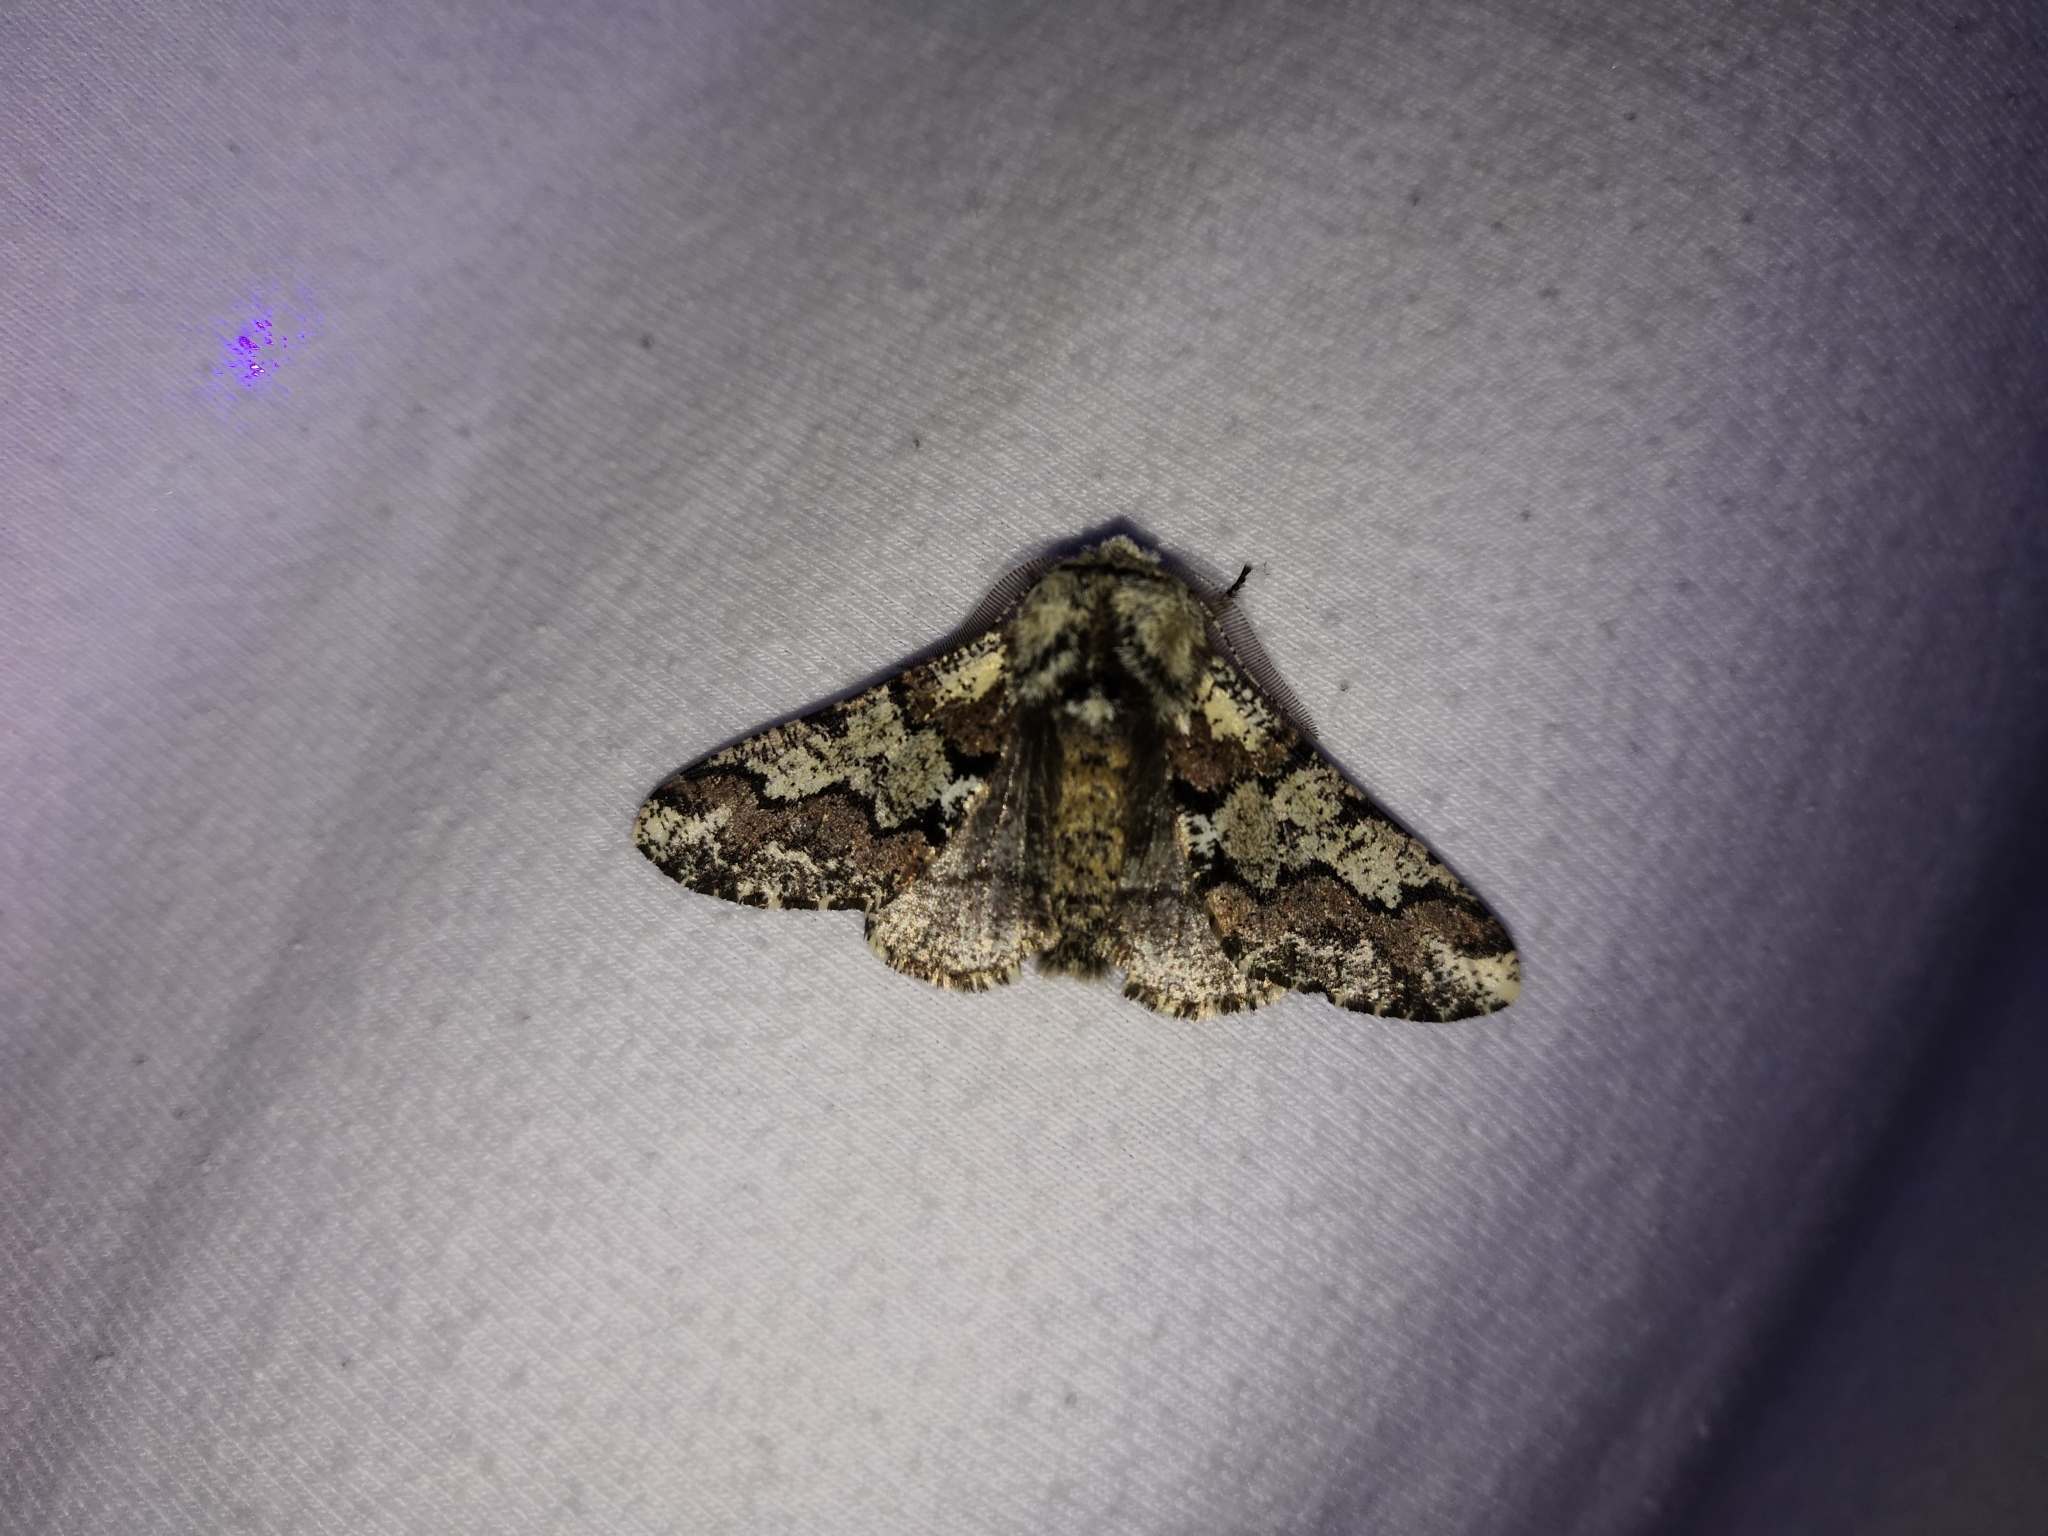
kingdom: Animalia
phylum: Arthropoda
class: Insecta
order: Lepidoptera
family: Geometridae
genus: Biston
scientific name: Biston strataria
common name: Oak beauty
